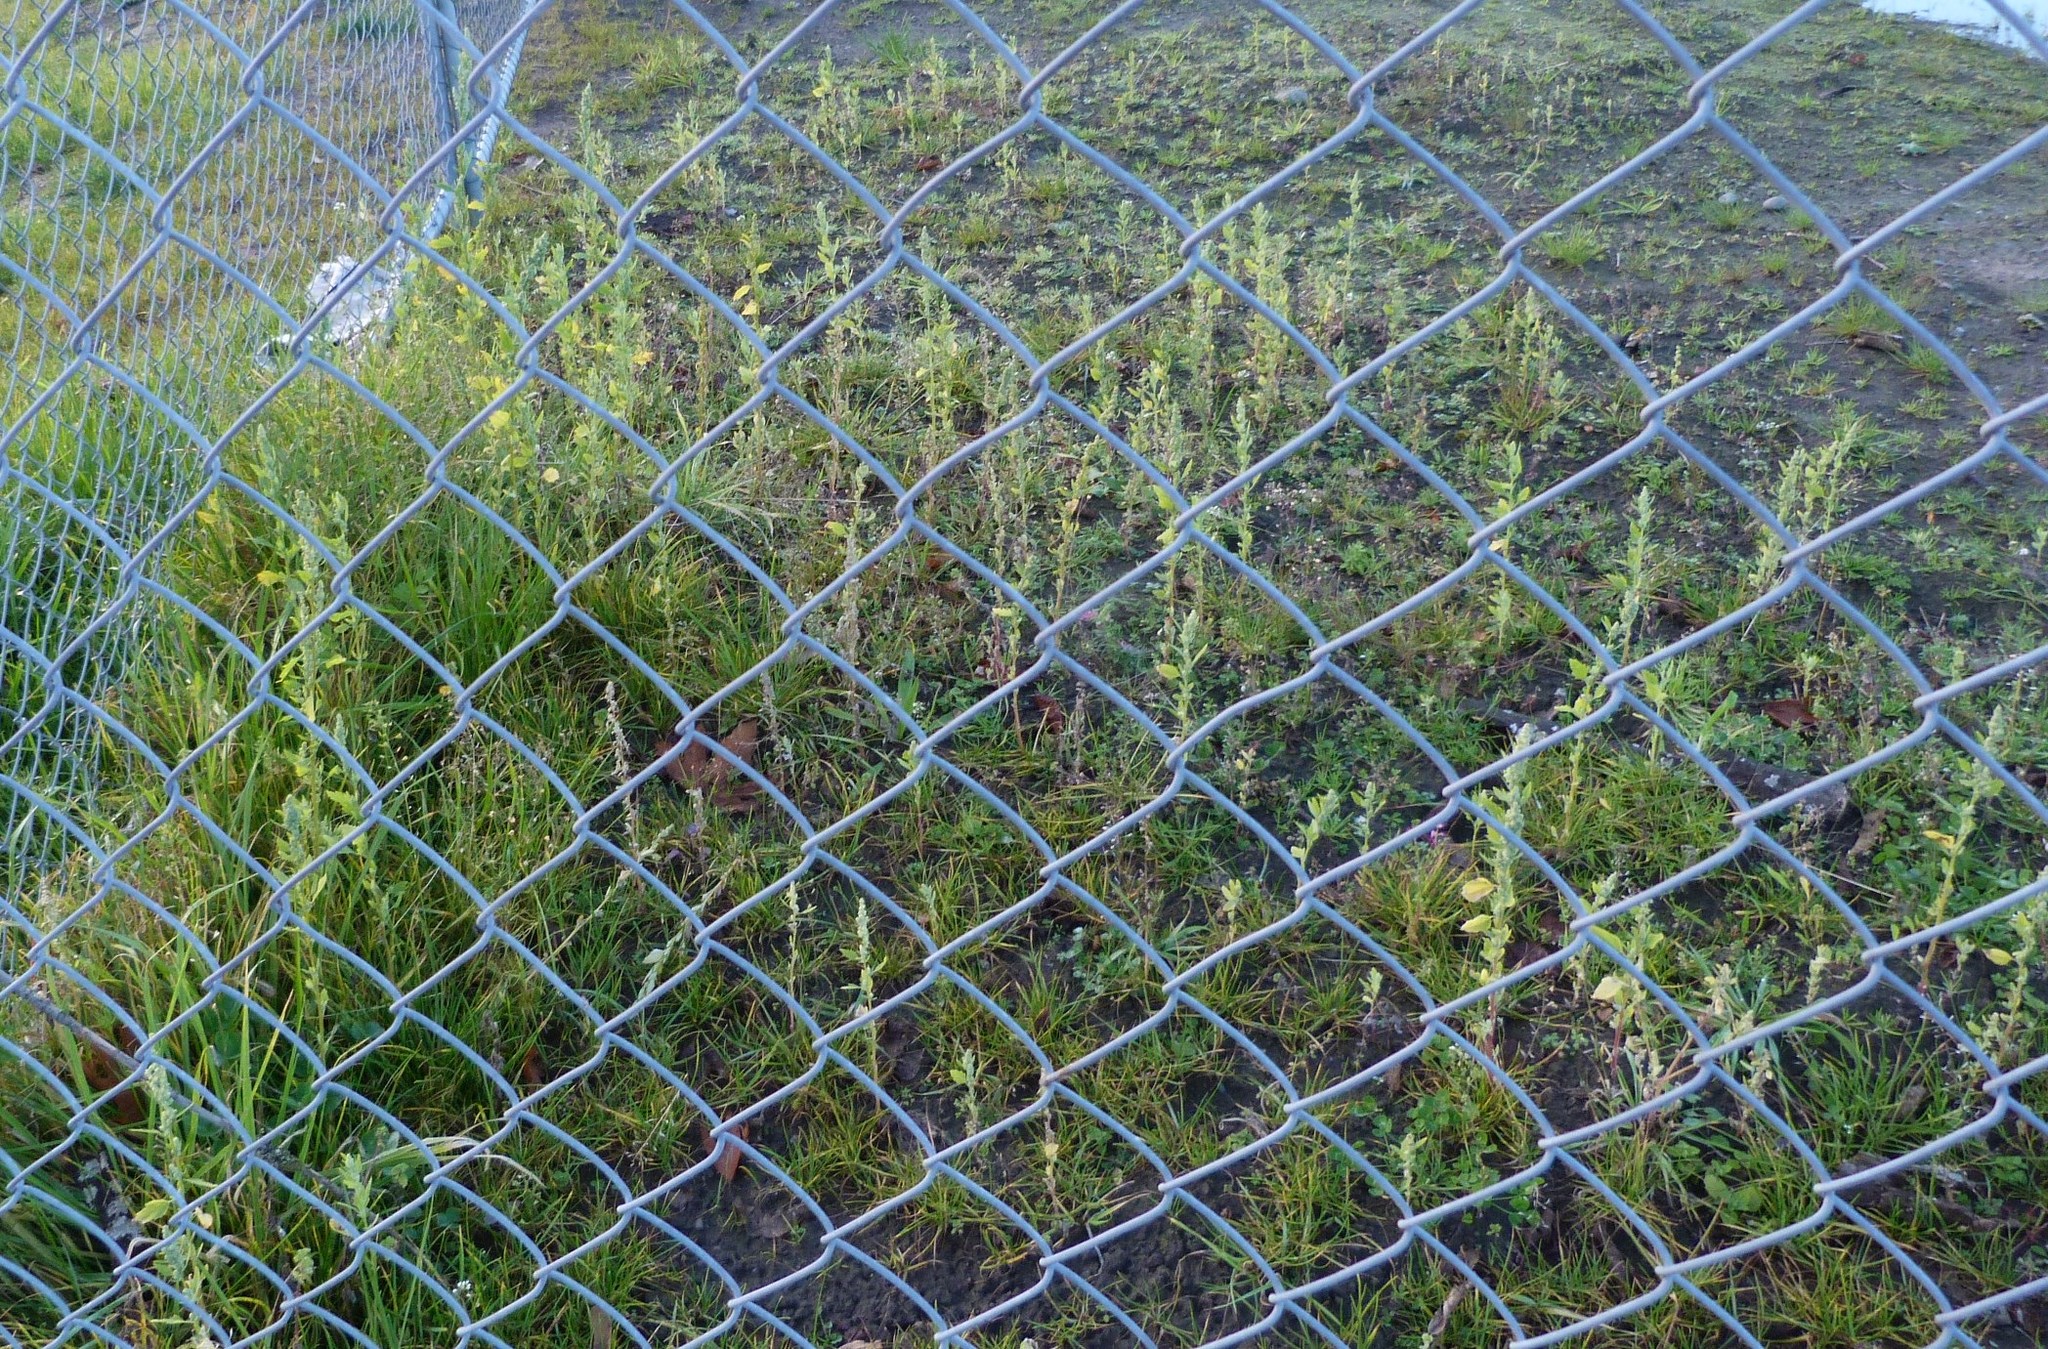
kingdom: Plantae
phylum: Tracheophyta
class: Magnoliopsida
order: Caryophyllales
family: Amaranthaceae
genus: Chenopodium
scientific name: Chenopodium album
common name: Fat-hen
